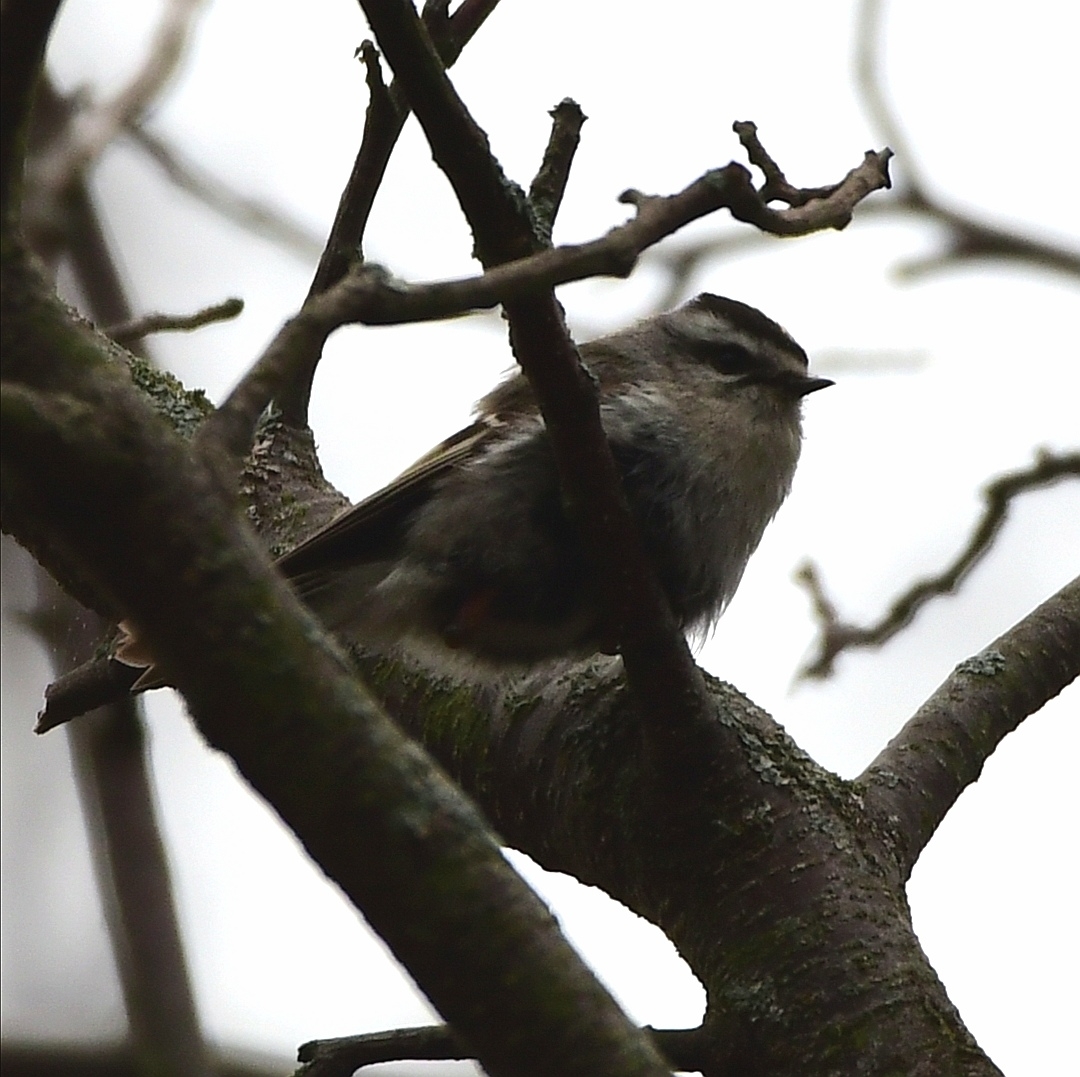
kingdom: Animalia
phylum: Chordata
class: Aves
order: Passeriformes
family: Regulidae
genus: Regulus
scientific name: Regulus satrapa
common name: Golden-crowned kinglet
